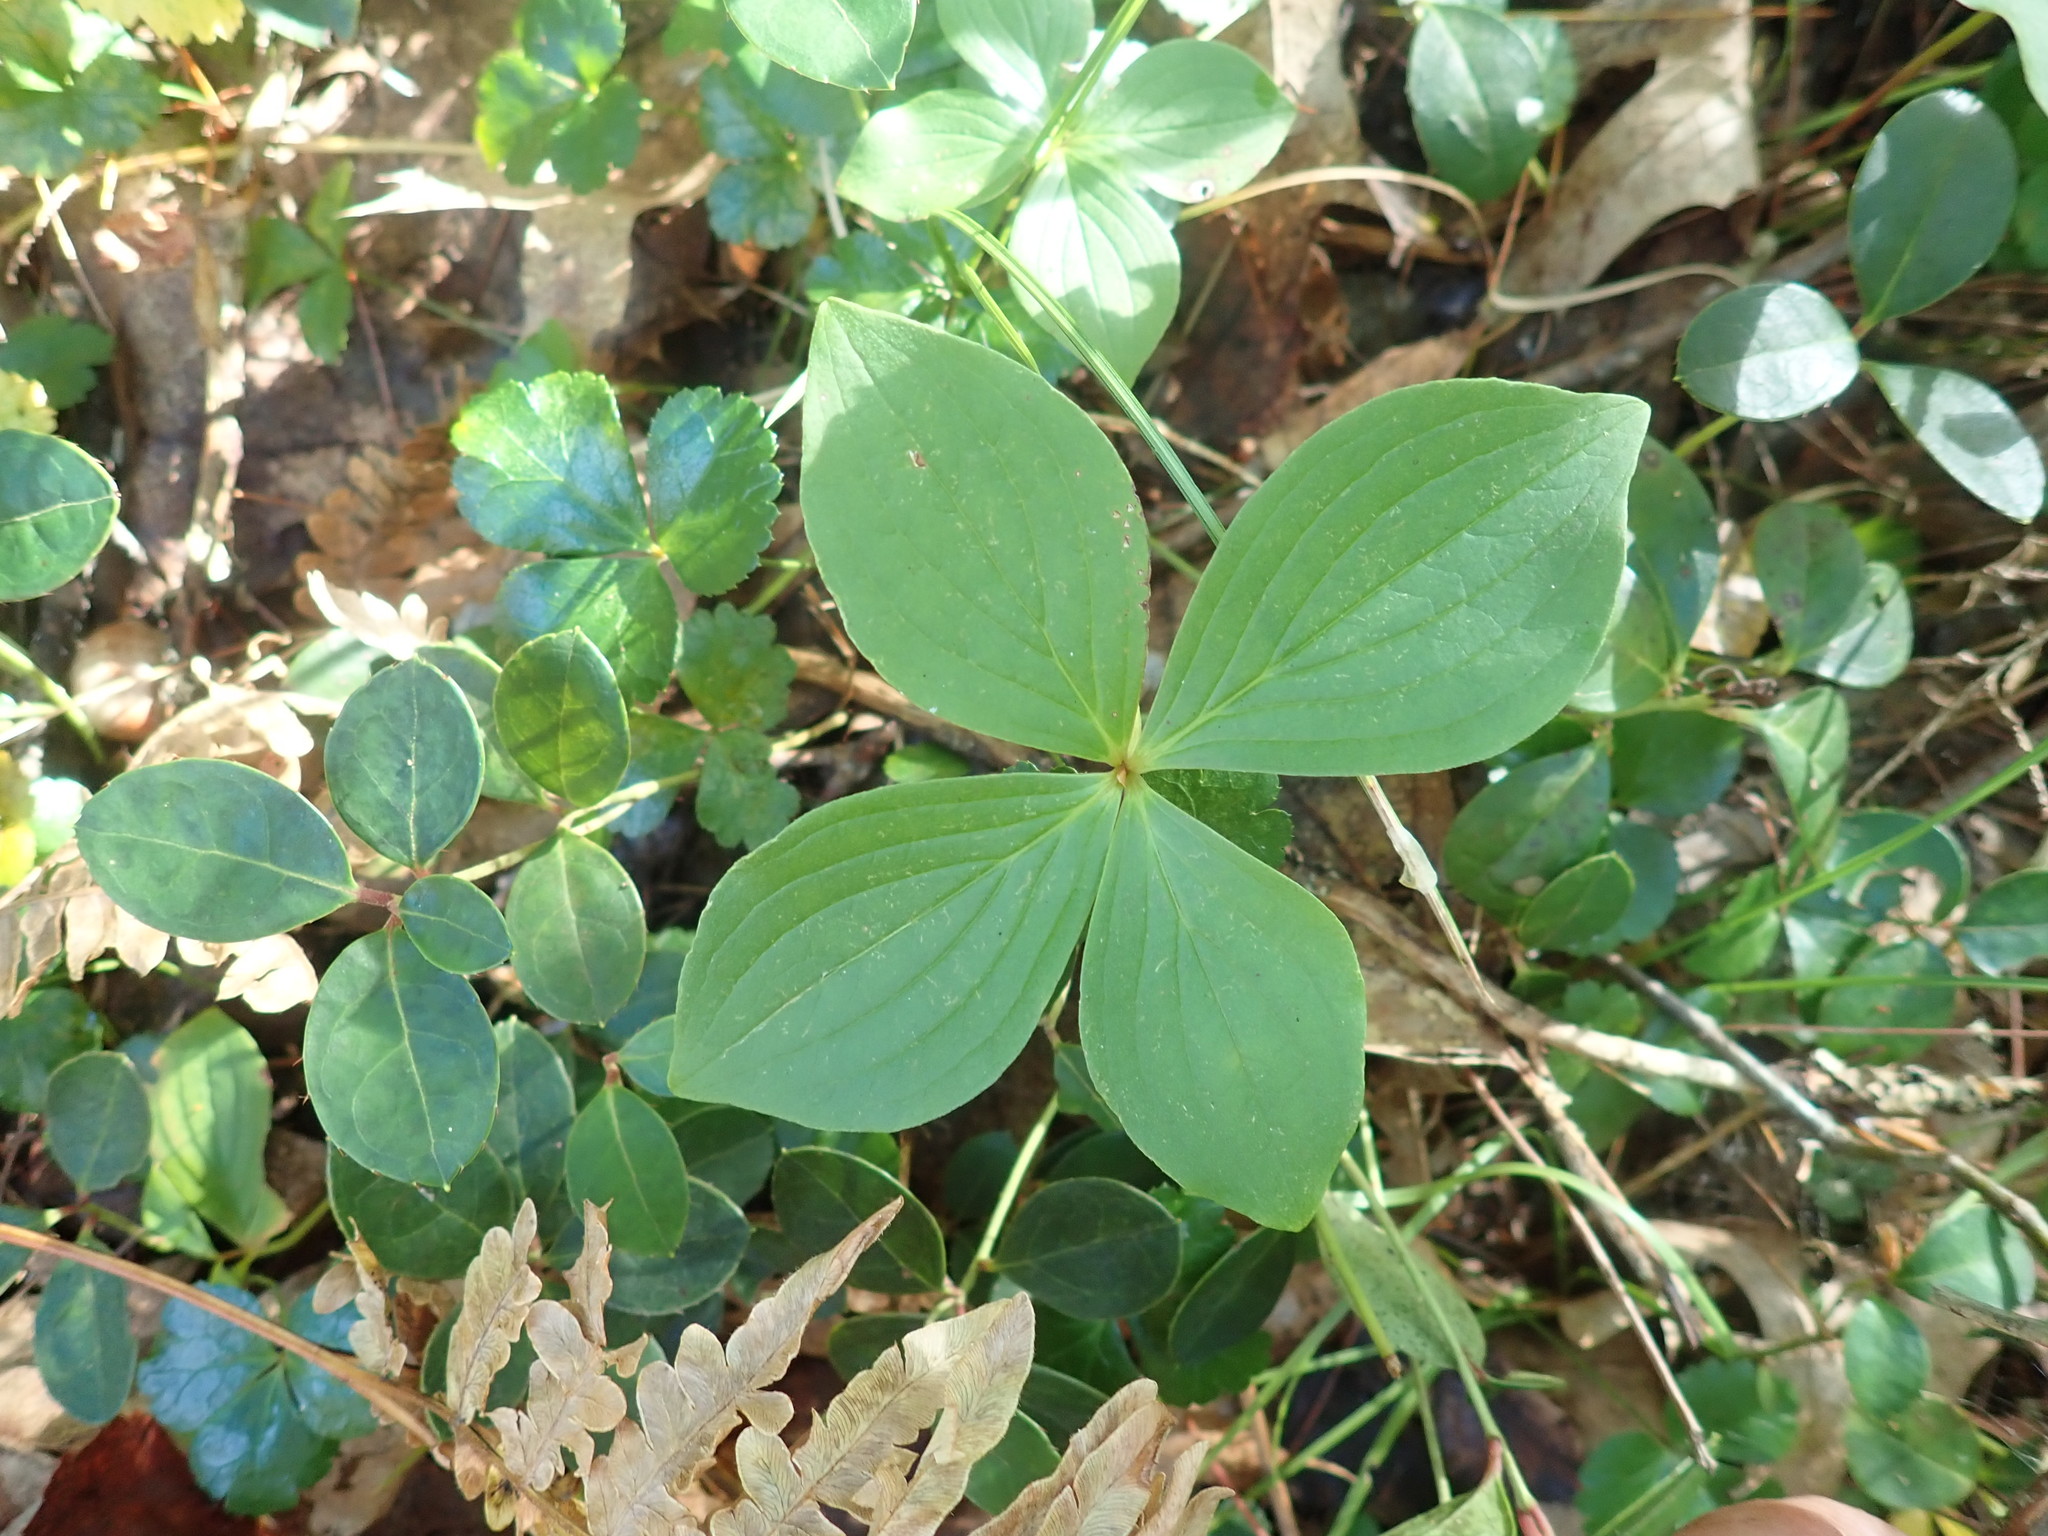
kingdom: Plantae
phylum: Tracheophyta
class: Magnoliopsida
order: Cornales
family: Cornaceae
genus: Cornus
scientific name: Cornus canadensis
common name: Creeping dogwood
